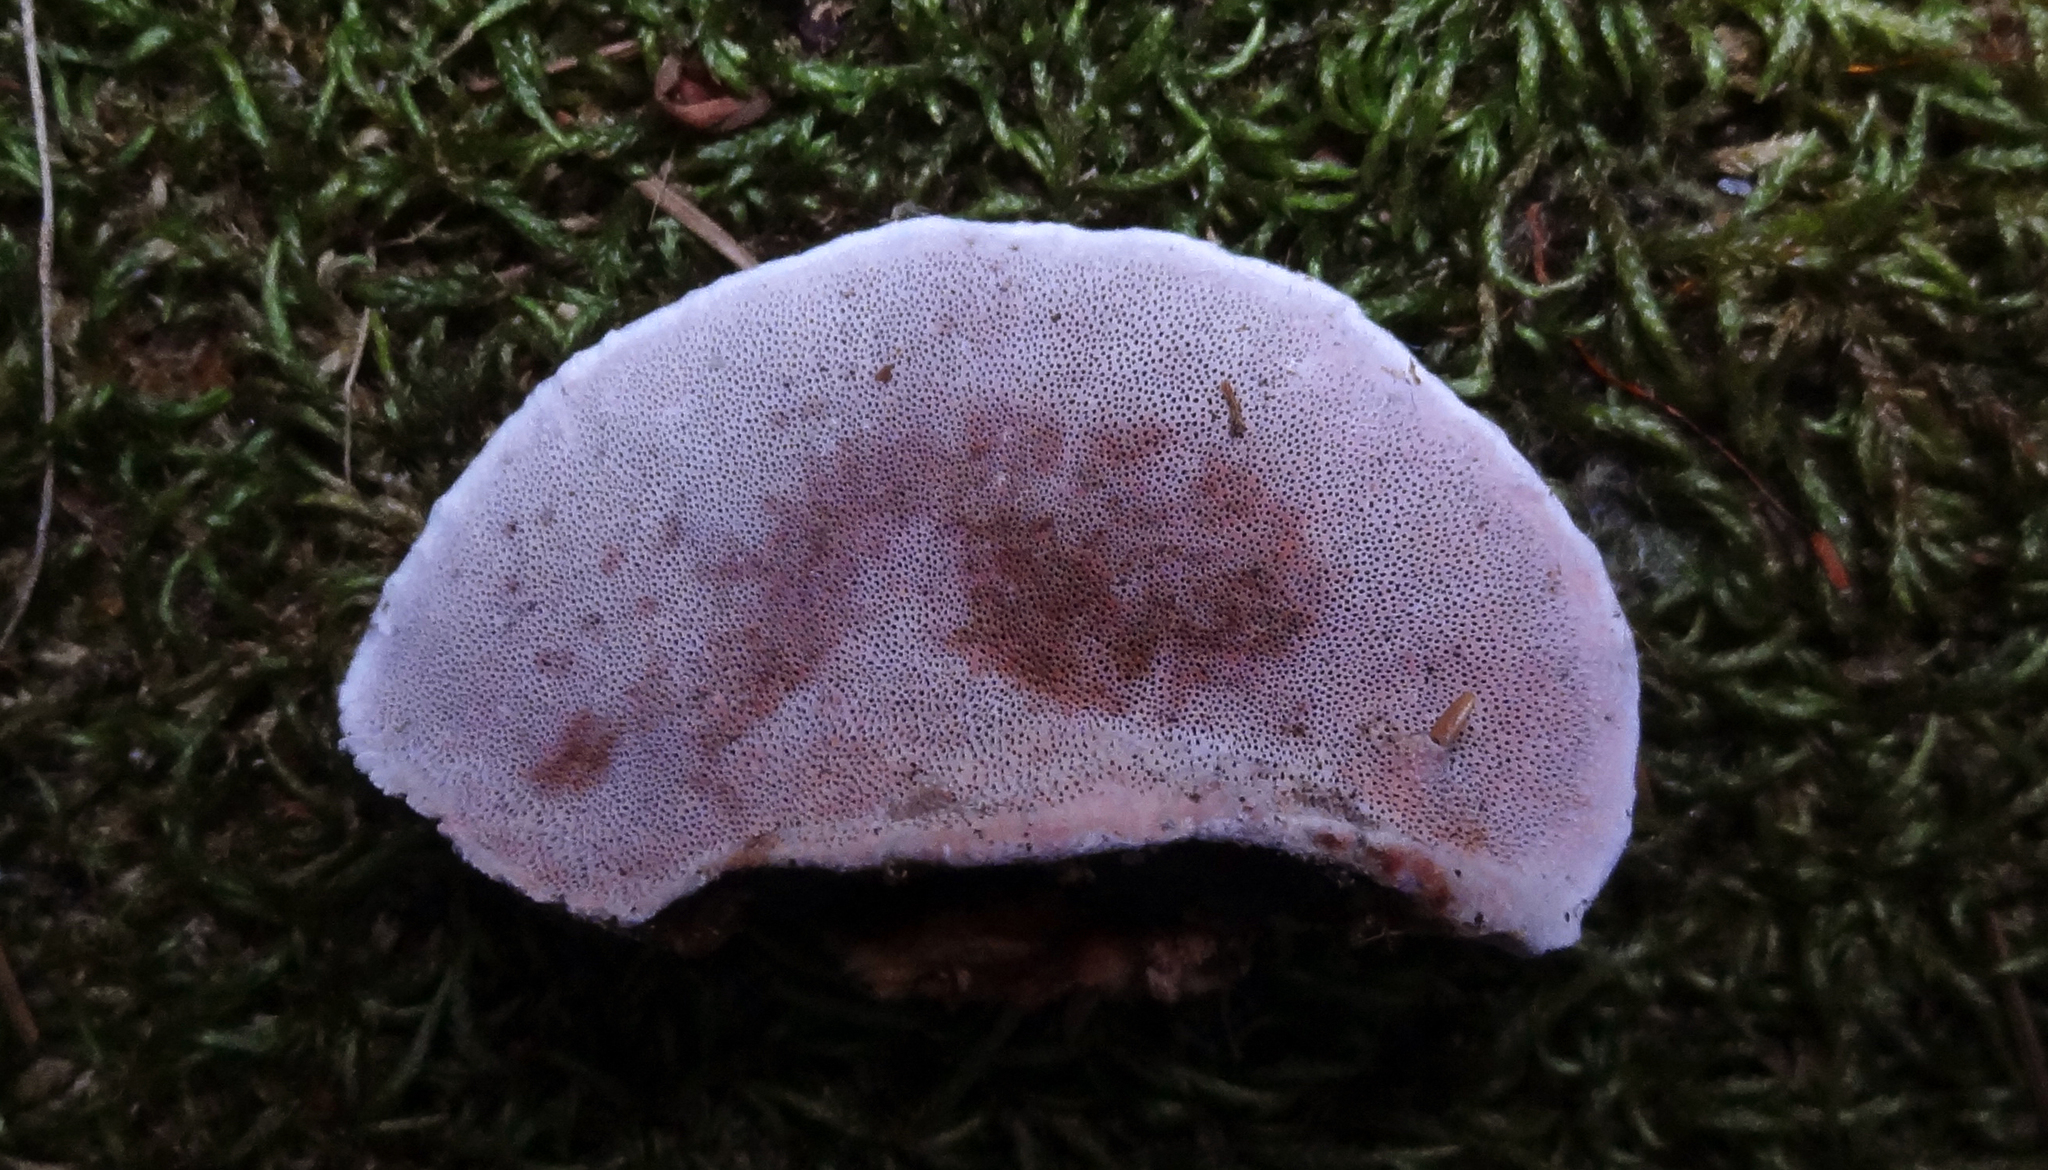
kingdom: Fungi
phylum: Basidiomycota
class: Agaricomycetes
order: Polyporales
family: Fomitopsidaceae
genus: Rhodofomes
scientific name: Rhodofomes cajanderi
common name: Rosy conk
